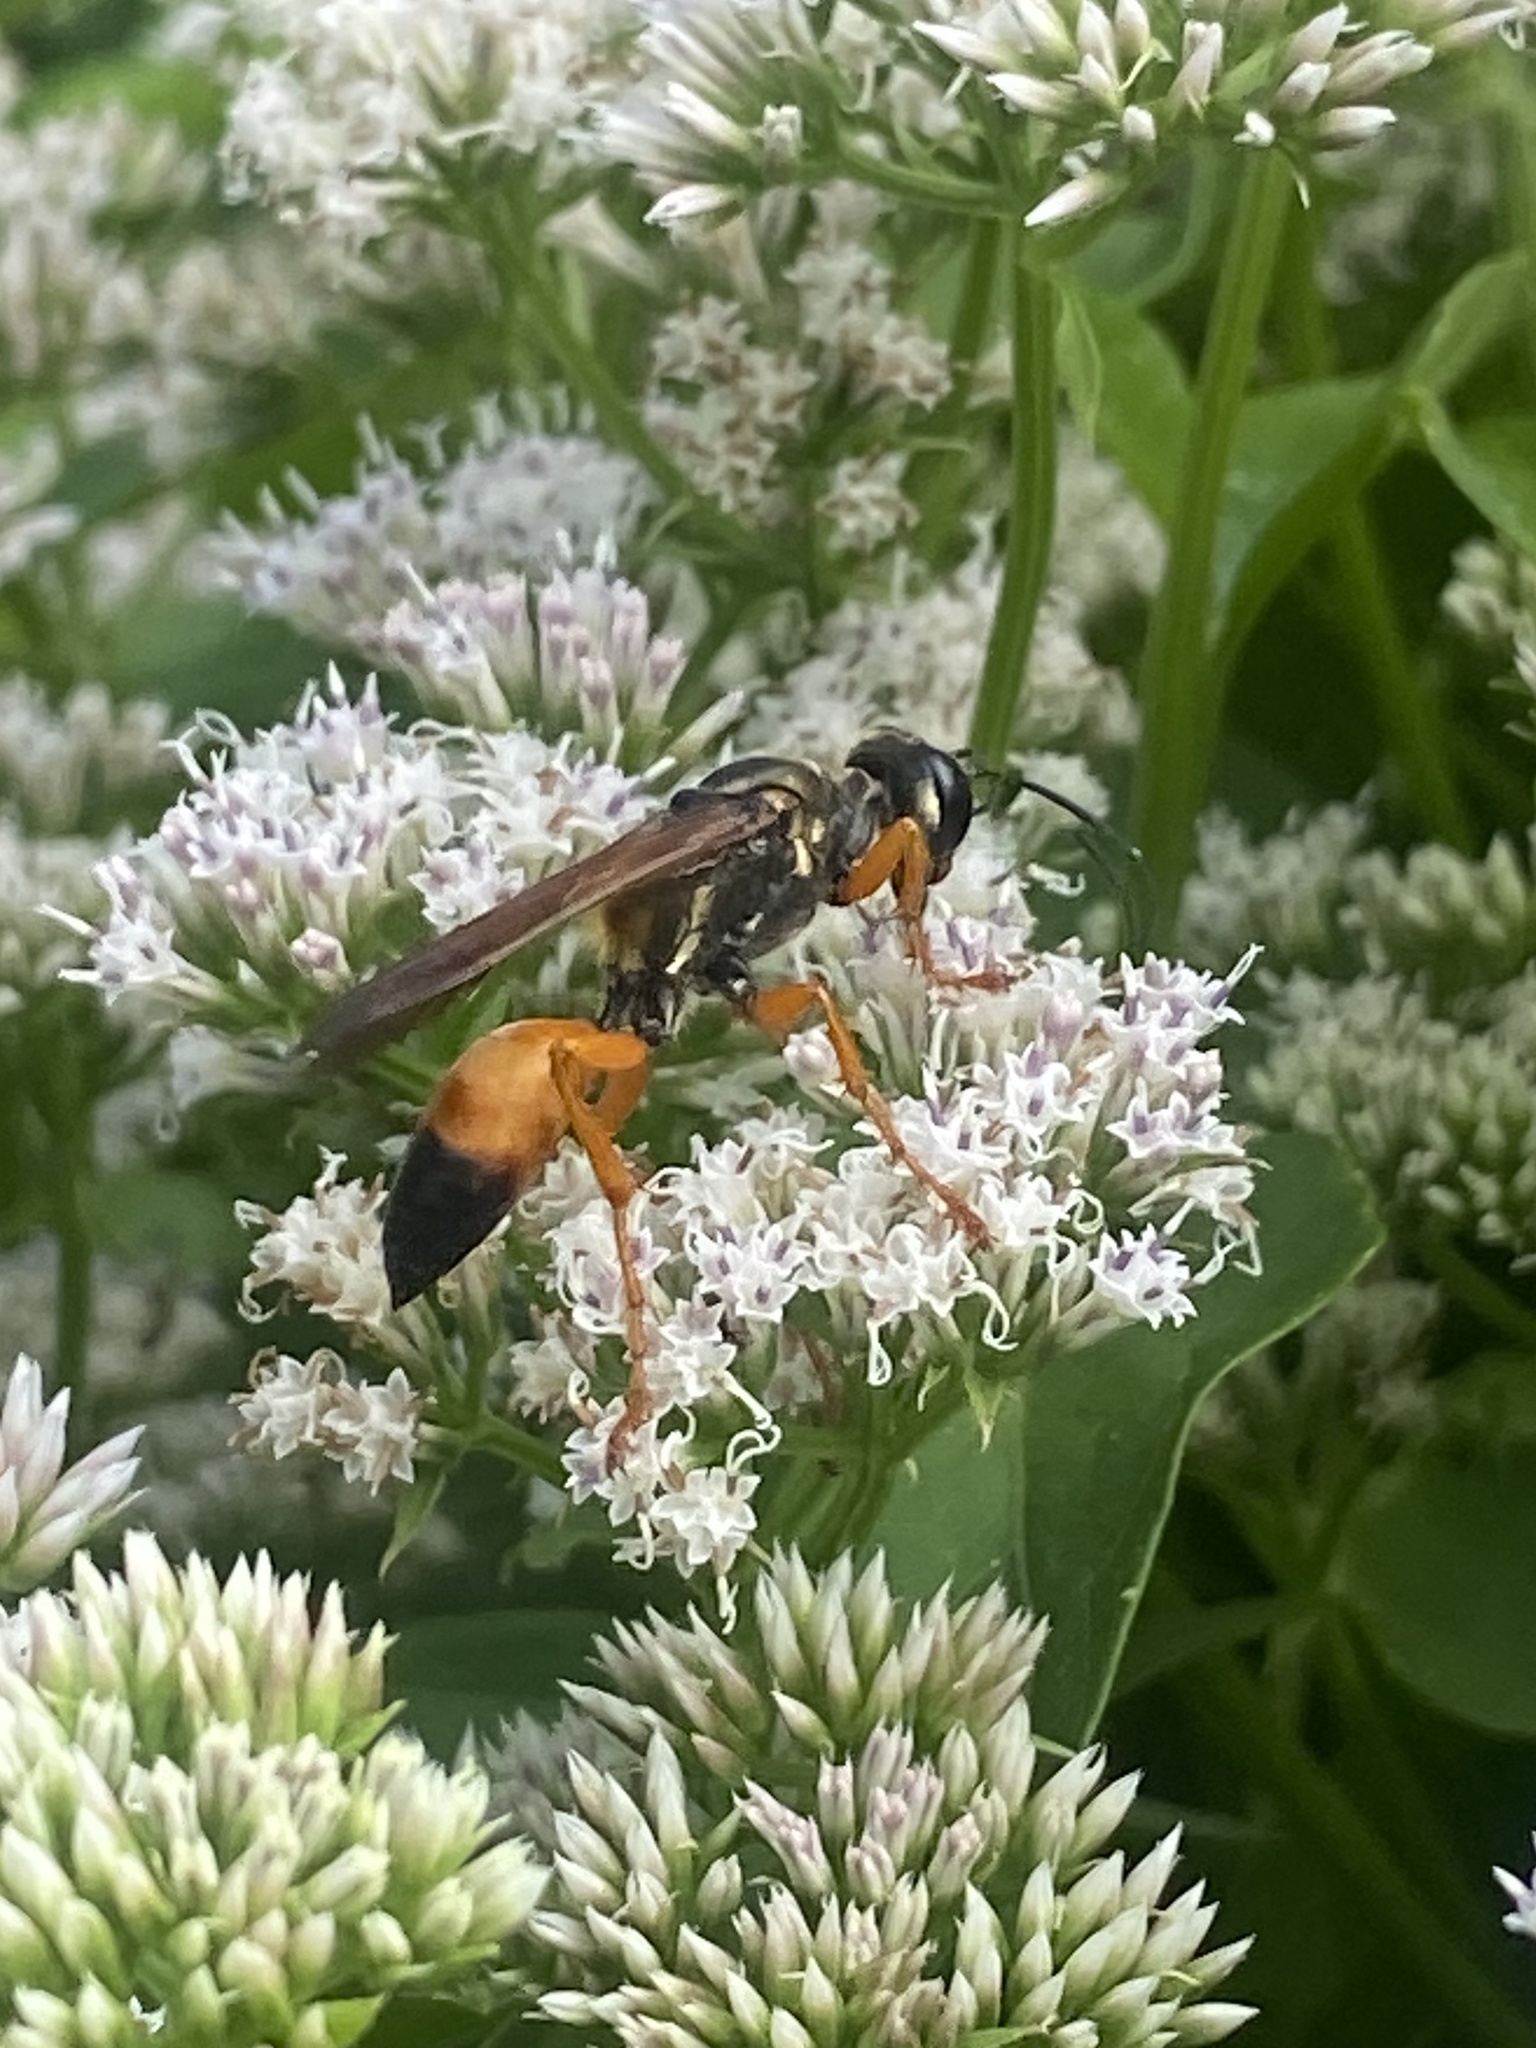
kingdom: Animalia
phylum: Arthropoda
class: Insecta
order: Hymenoptera
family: Sphecidae
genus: Sphex
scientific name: Sphex ichneumoneus
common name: Great golden digger wasp
